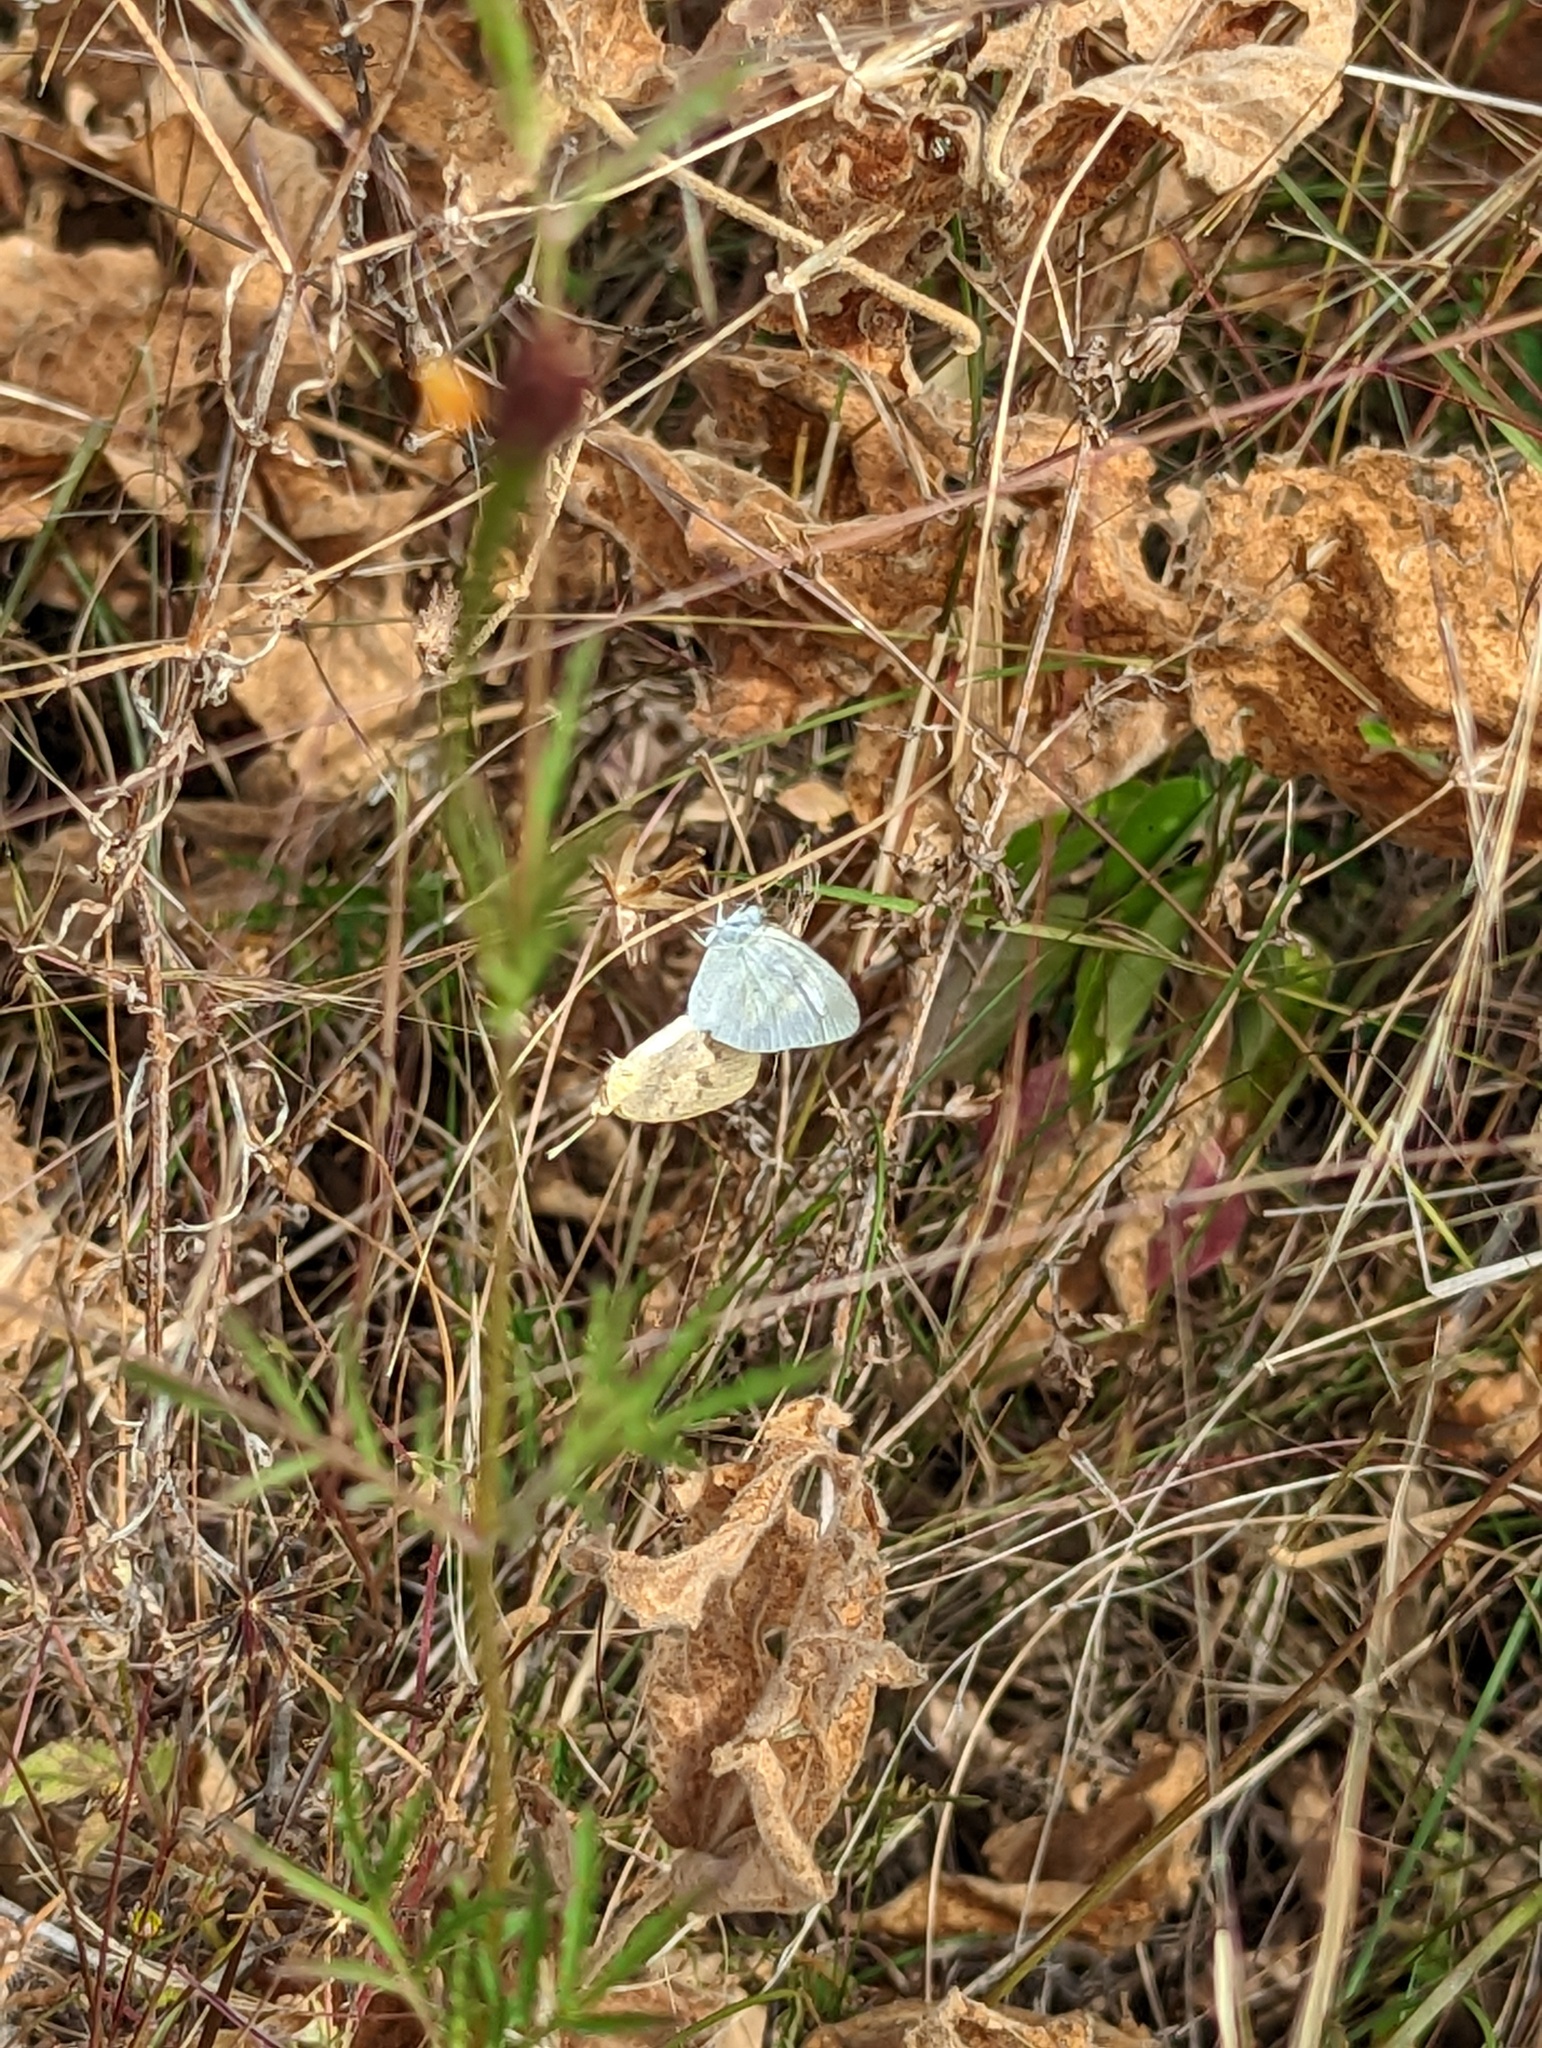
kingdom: Animalia
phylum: Arthropoda
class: Insecta
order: Lepidoptera
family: Pieridae
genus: Eurema
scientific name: Eurema daira
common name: Barred sulphur
